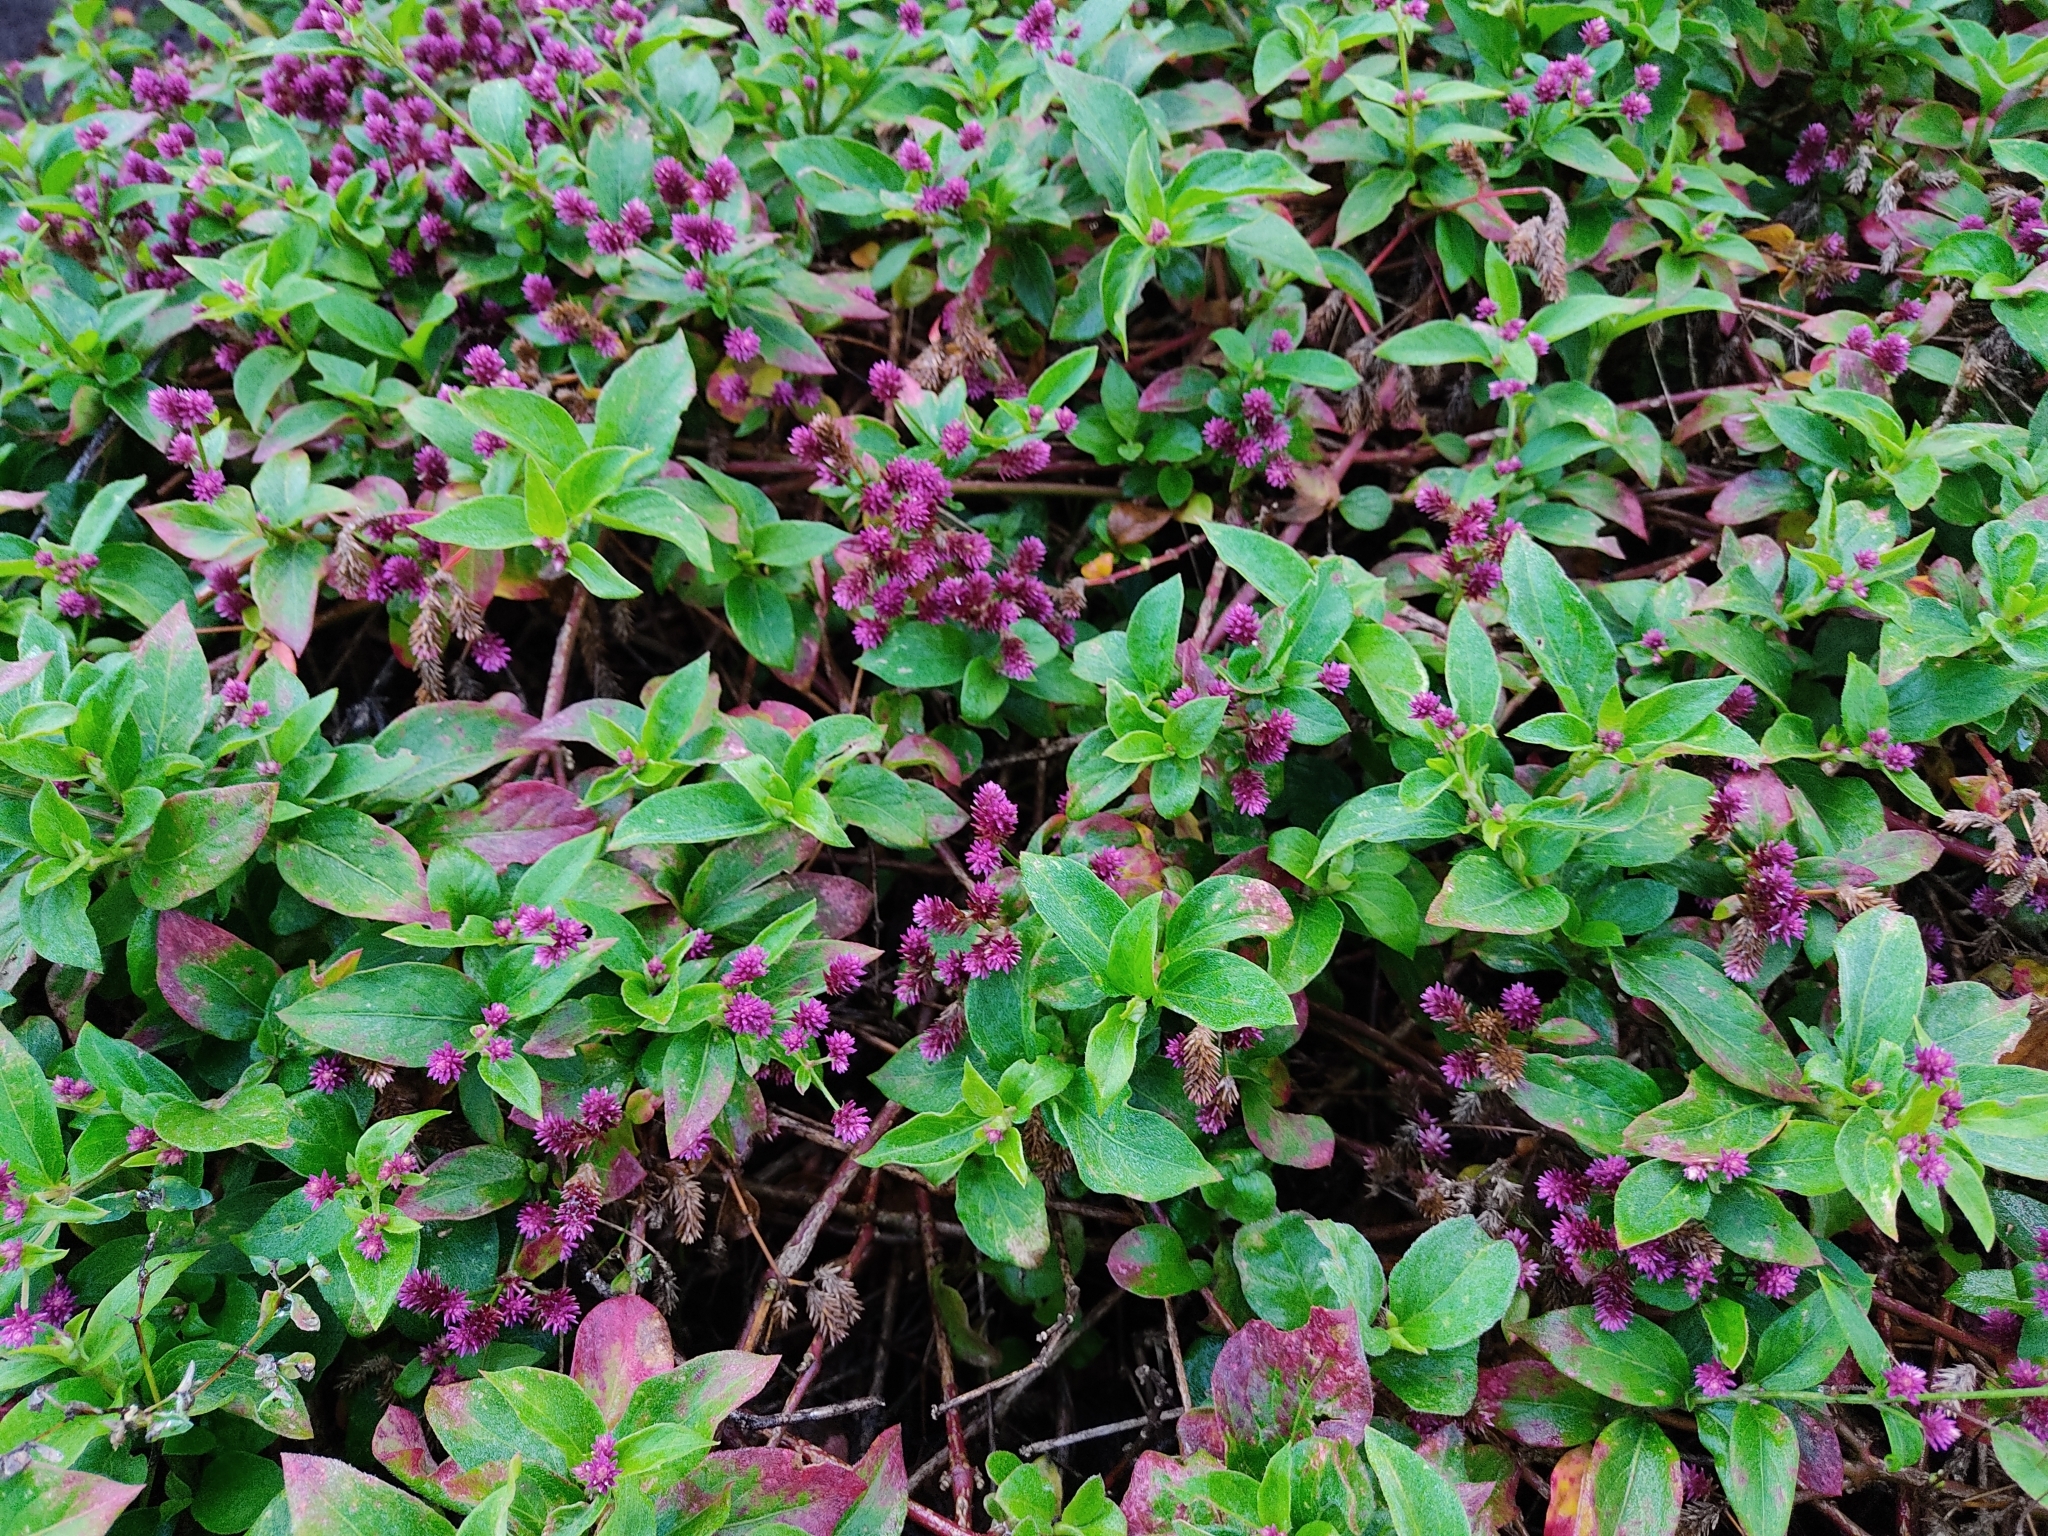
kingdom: Plantae
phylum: Tracheophyta
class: Magnoliopsida
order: Caryophyllales
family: Amaranthaceae
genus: Alternanthera
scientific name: Alternanthera porrigens
